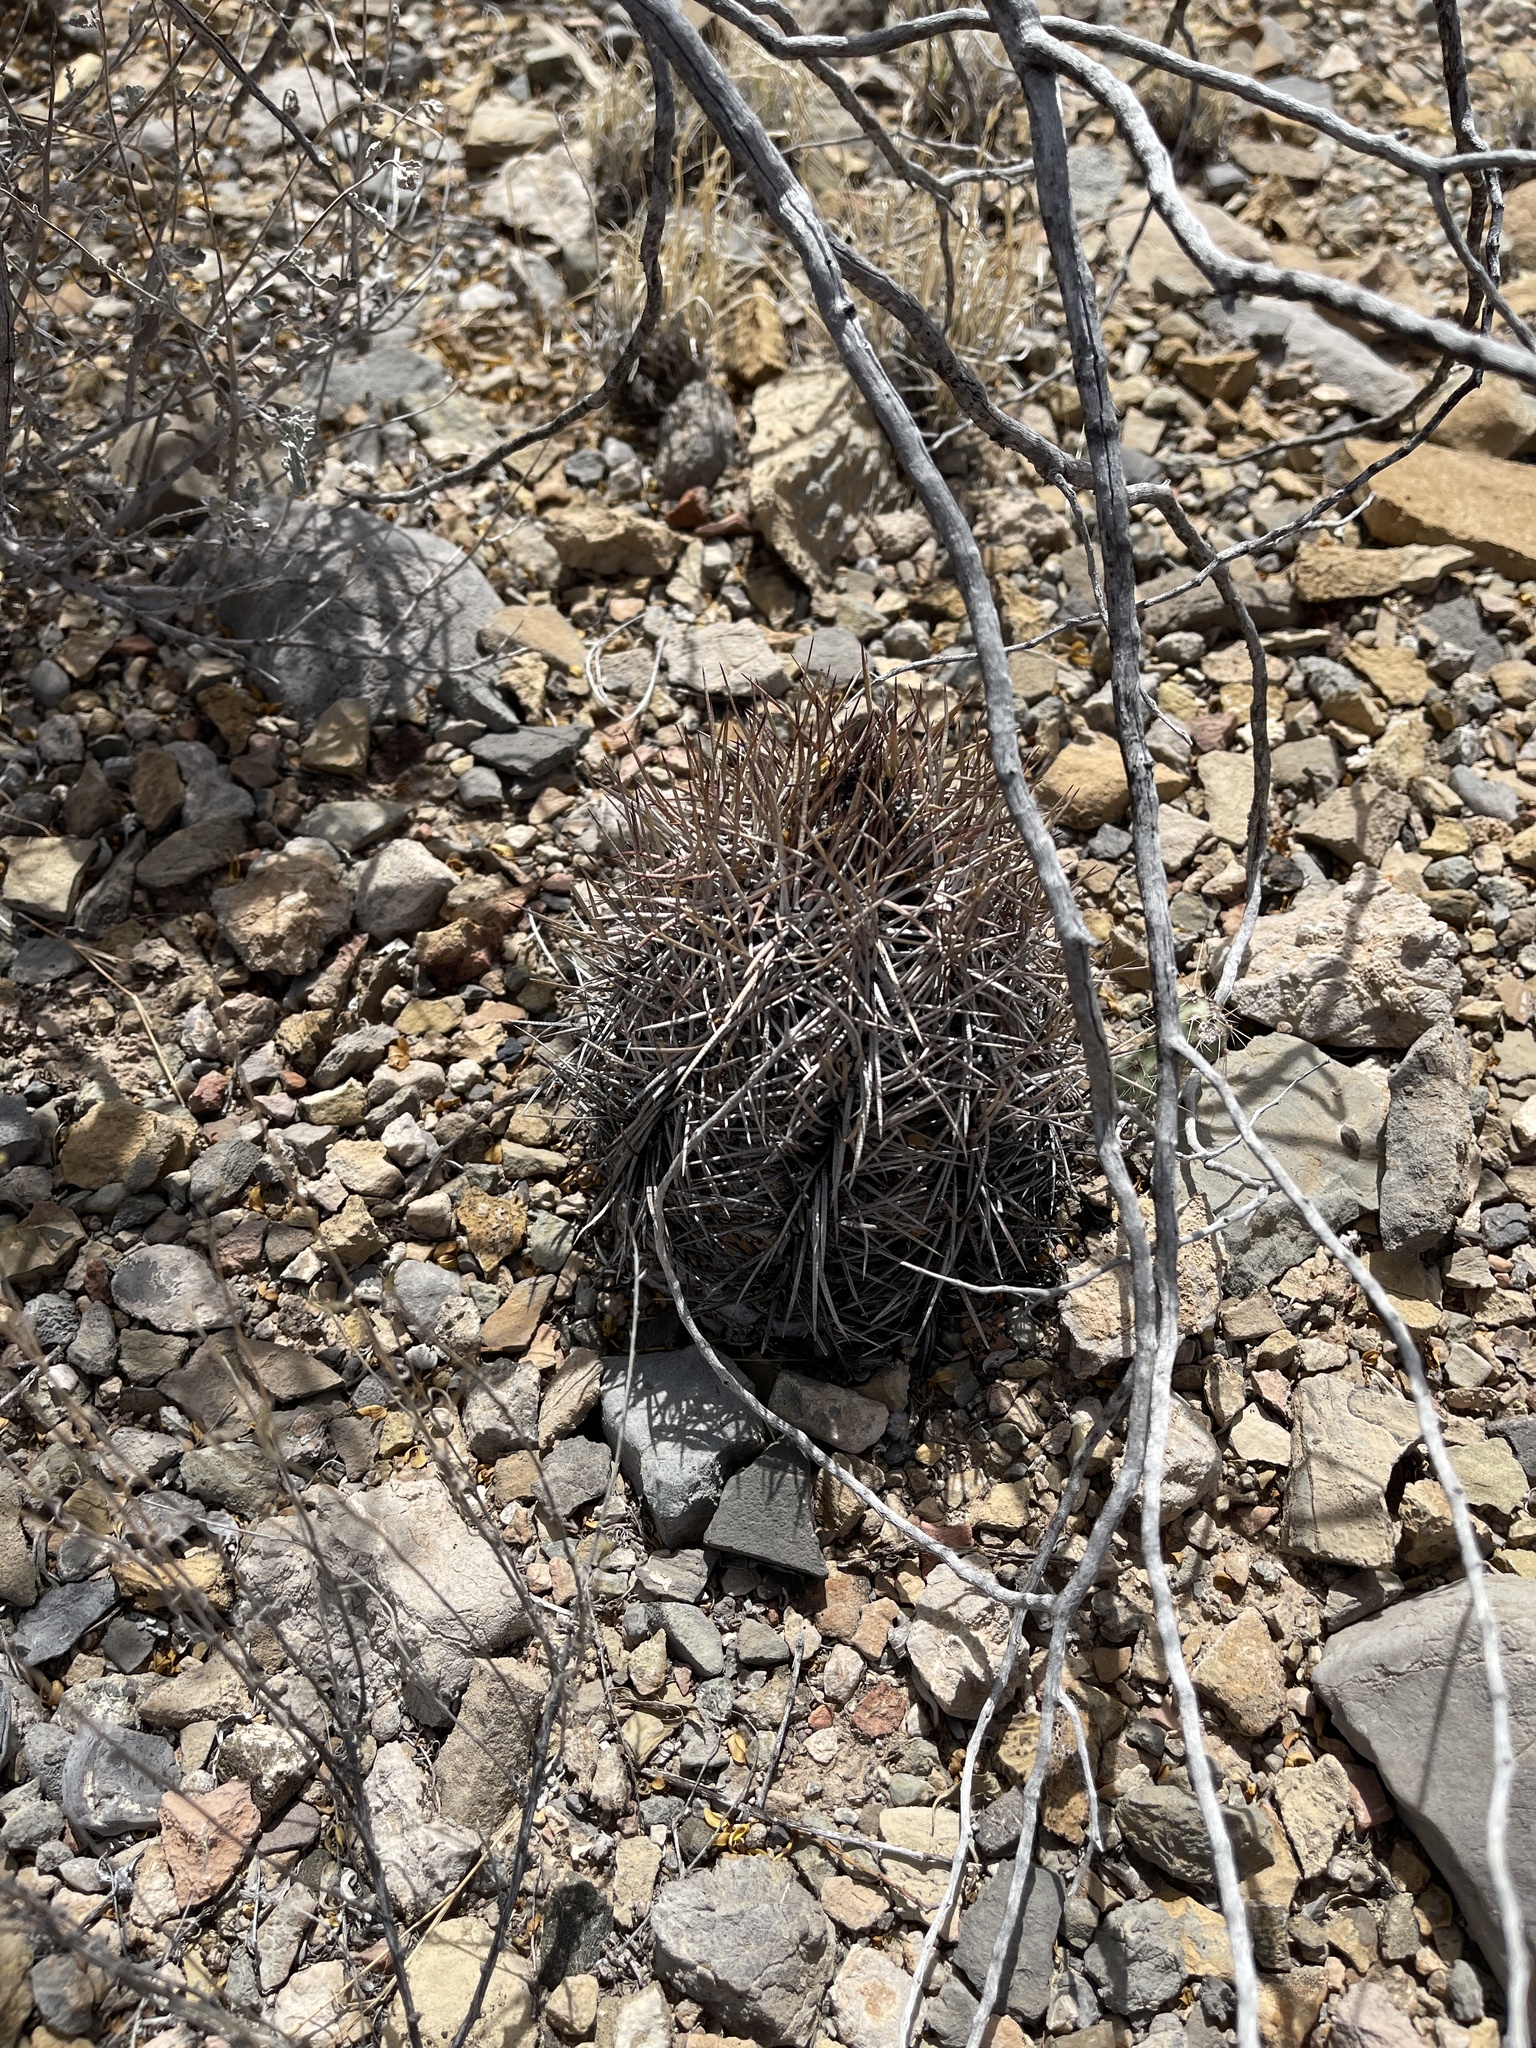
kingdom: Plantae
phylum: Tracheophyta
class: Magnoliopsida
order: Caryophyllales
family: Cactaceae
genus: Echinocactus
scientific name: Echinocactus horizonthalonius
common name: Devilshead
